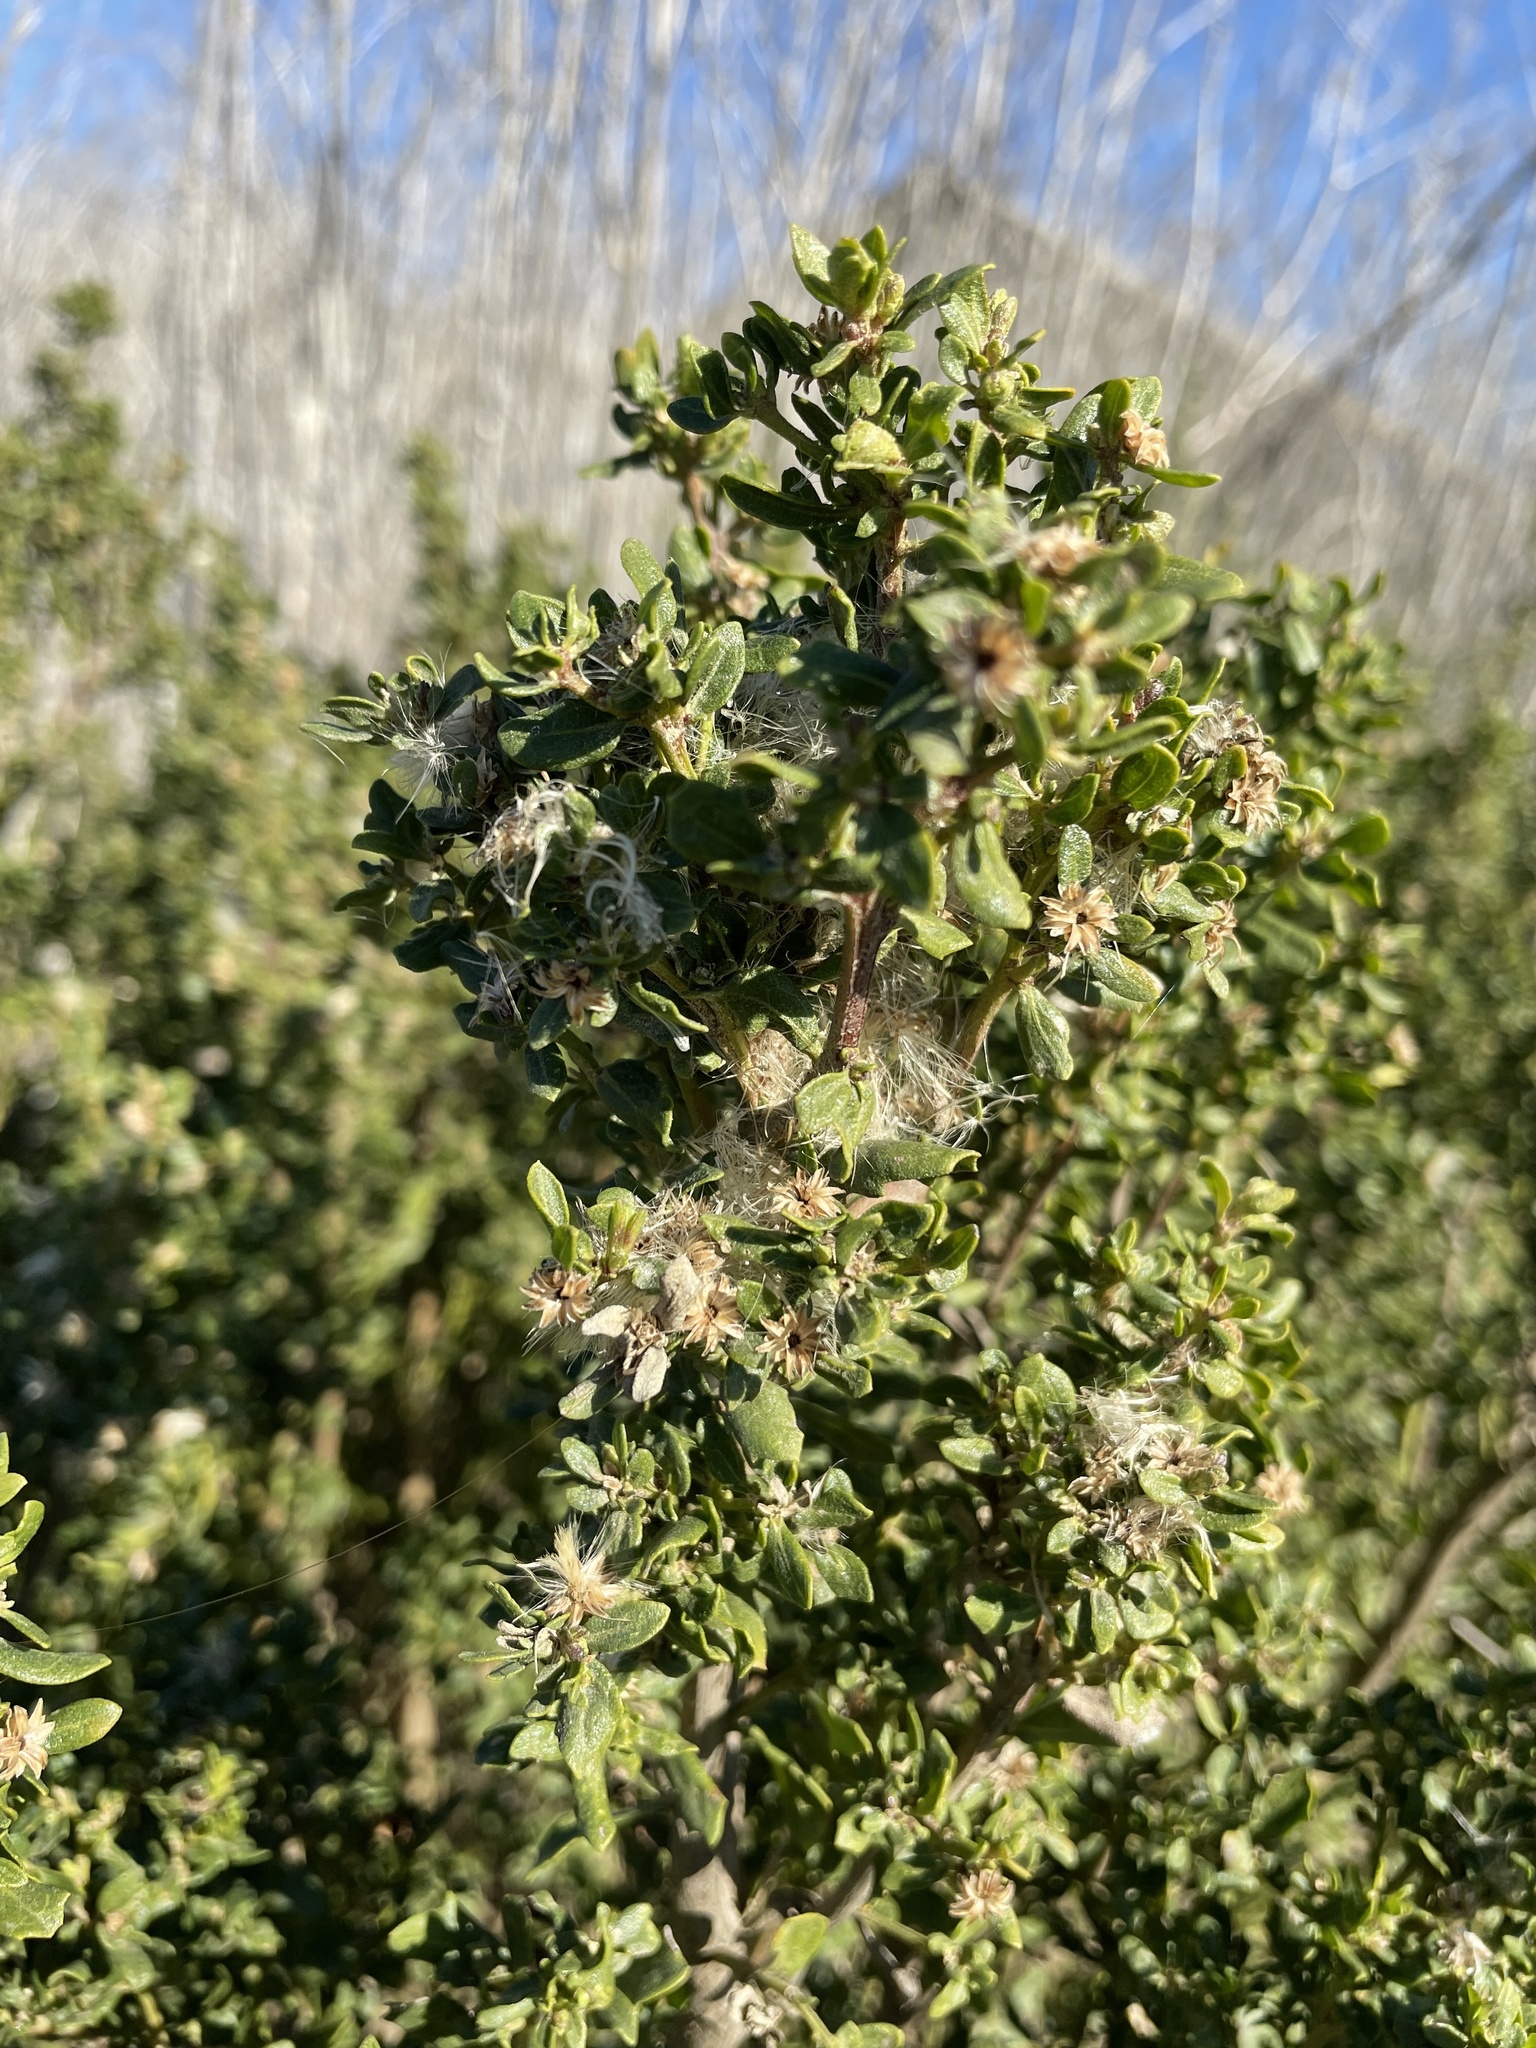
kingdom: Plantae
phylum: Tracheophyta
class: Magnoliopsida
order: Asterales
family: Asteraceae
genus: Baccharis
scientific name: Baccharis pilularis
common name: Coyotebrush
